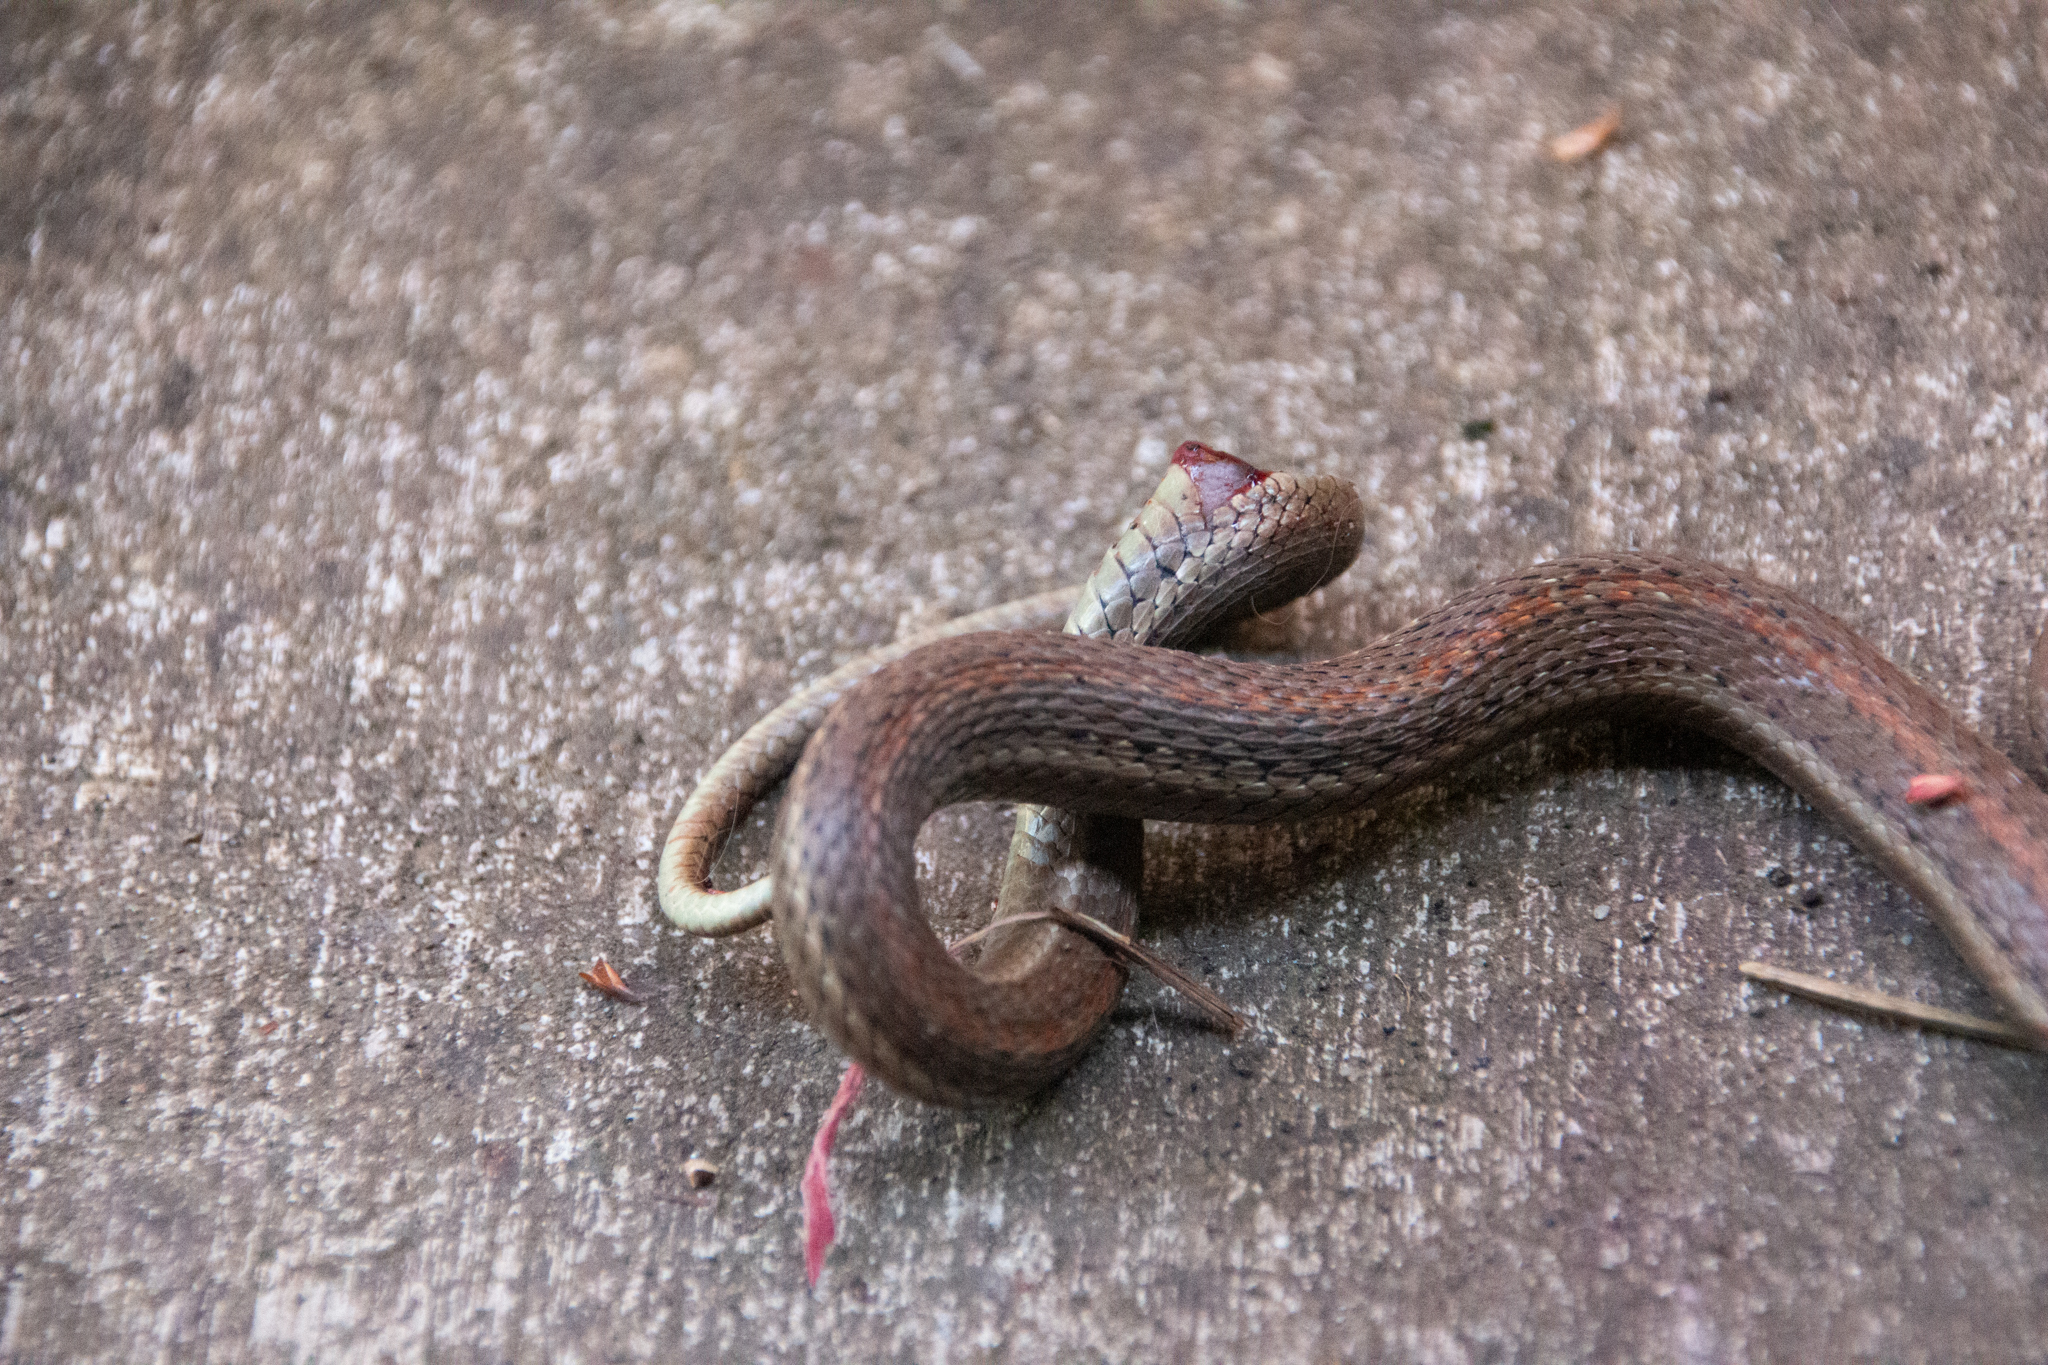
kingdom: Animalia
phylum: Chordata
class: Squamata
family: Colubridae
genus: Thamnophis
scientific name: Thamnophis ordinoides
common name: Northwestern garter snake
